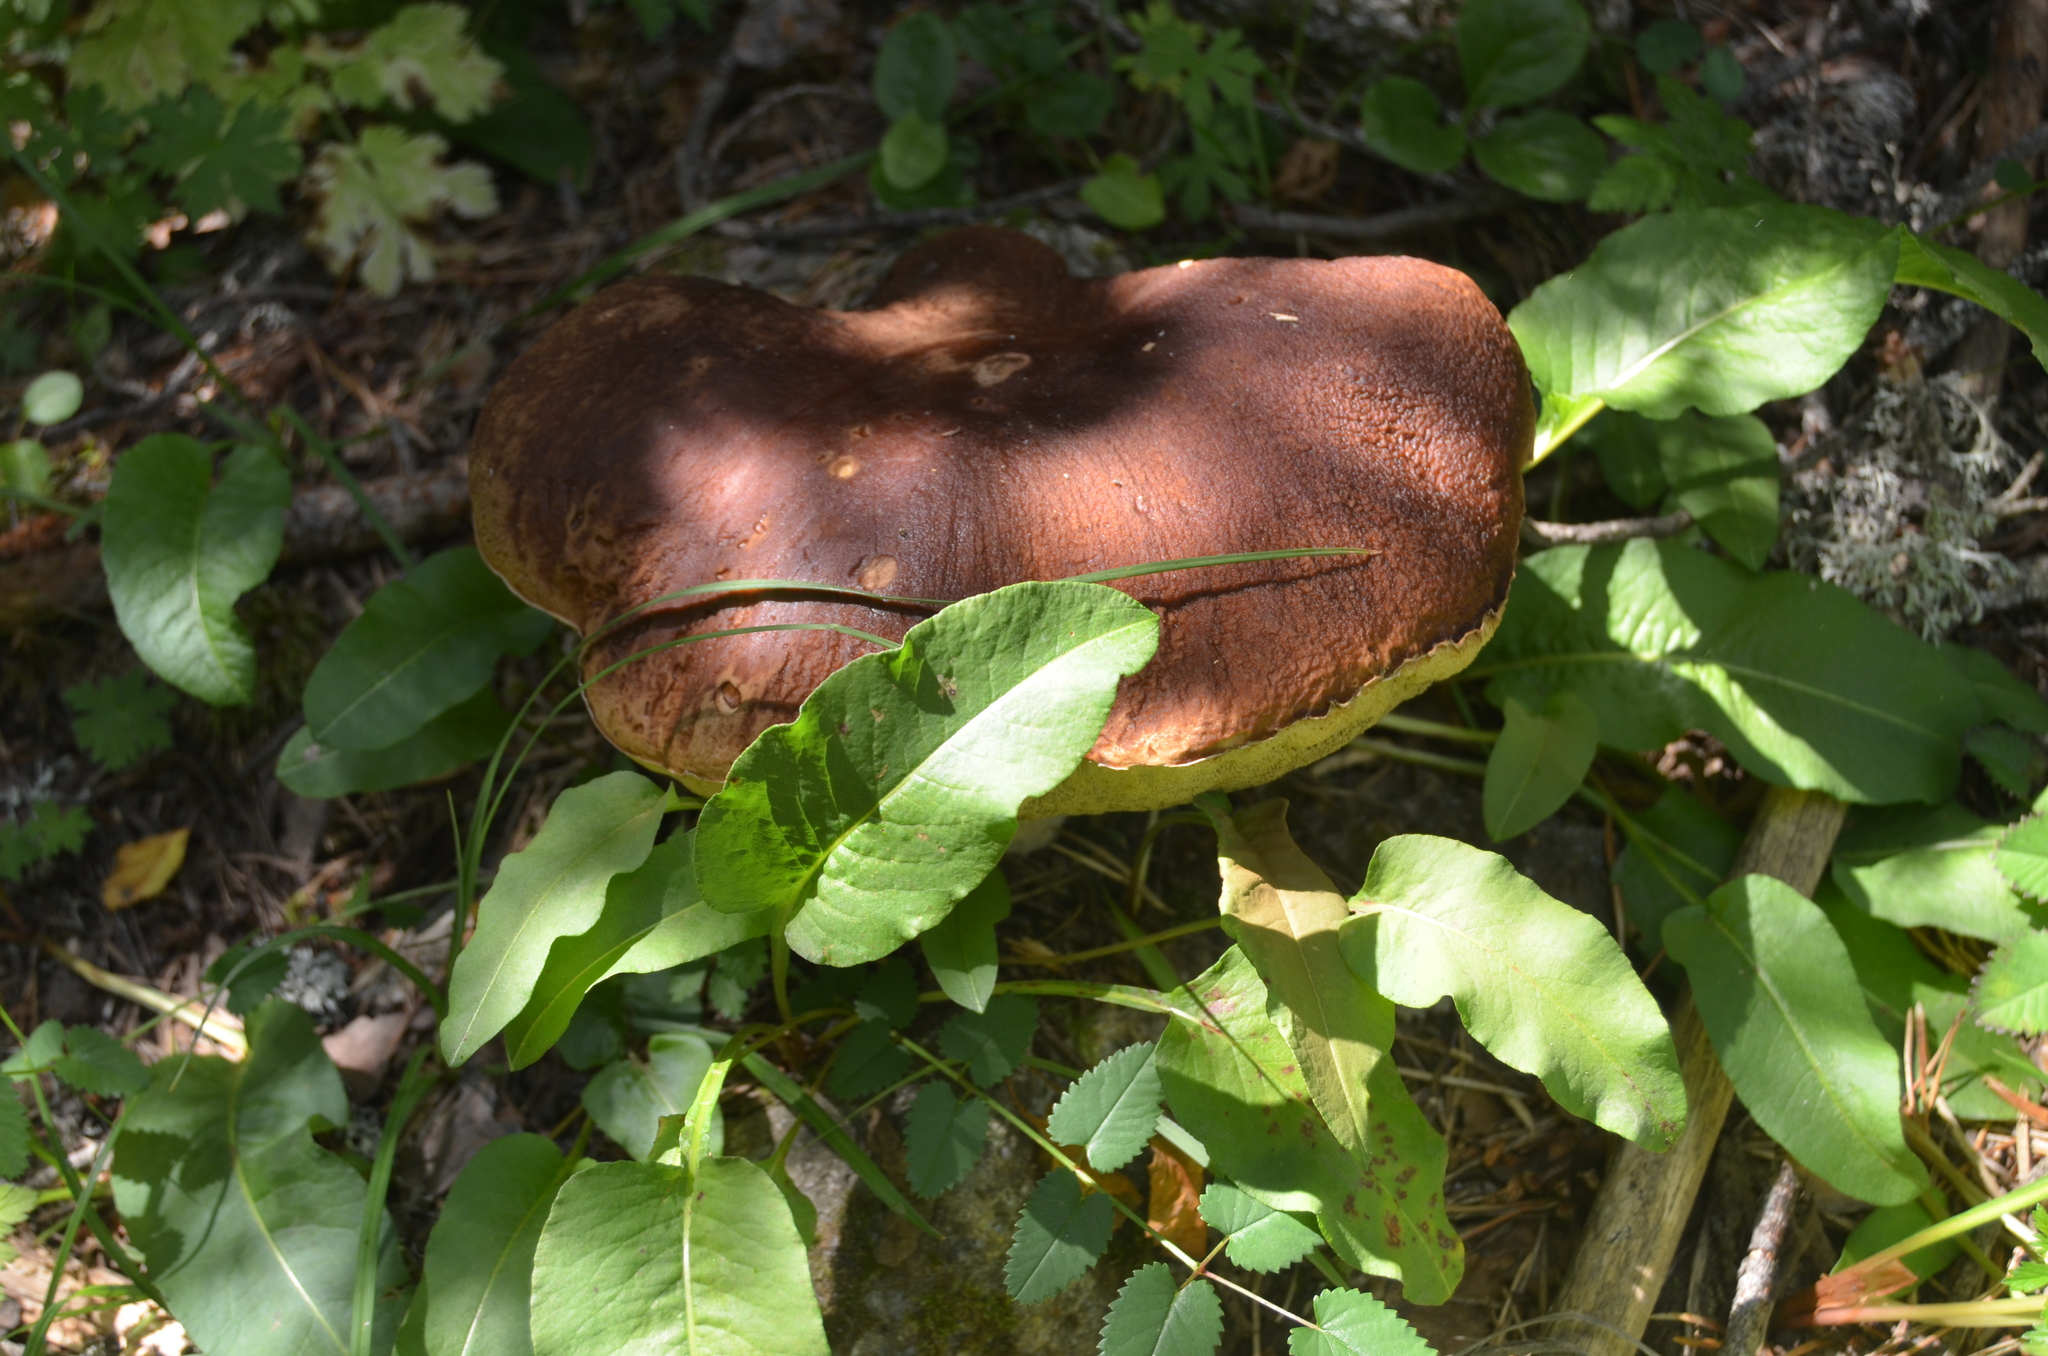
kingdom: Fungi
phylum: Basidiomycota
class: Agaricomycetes
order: Boletales
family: Boletaceae
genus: Boletus
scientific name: Boletus edulis
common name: Cep
